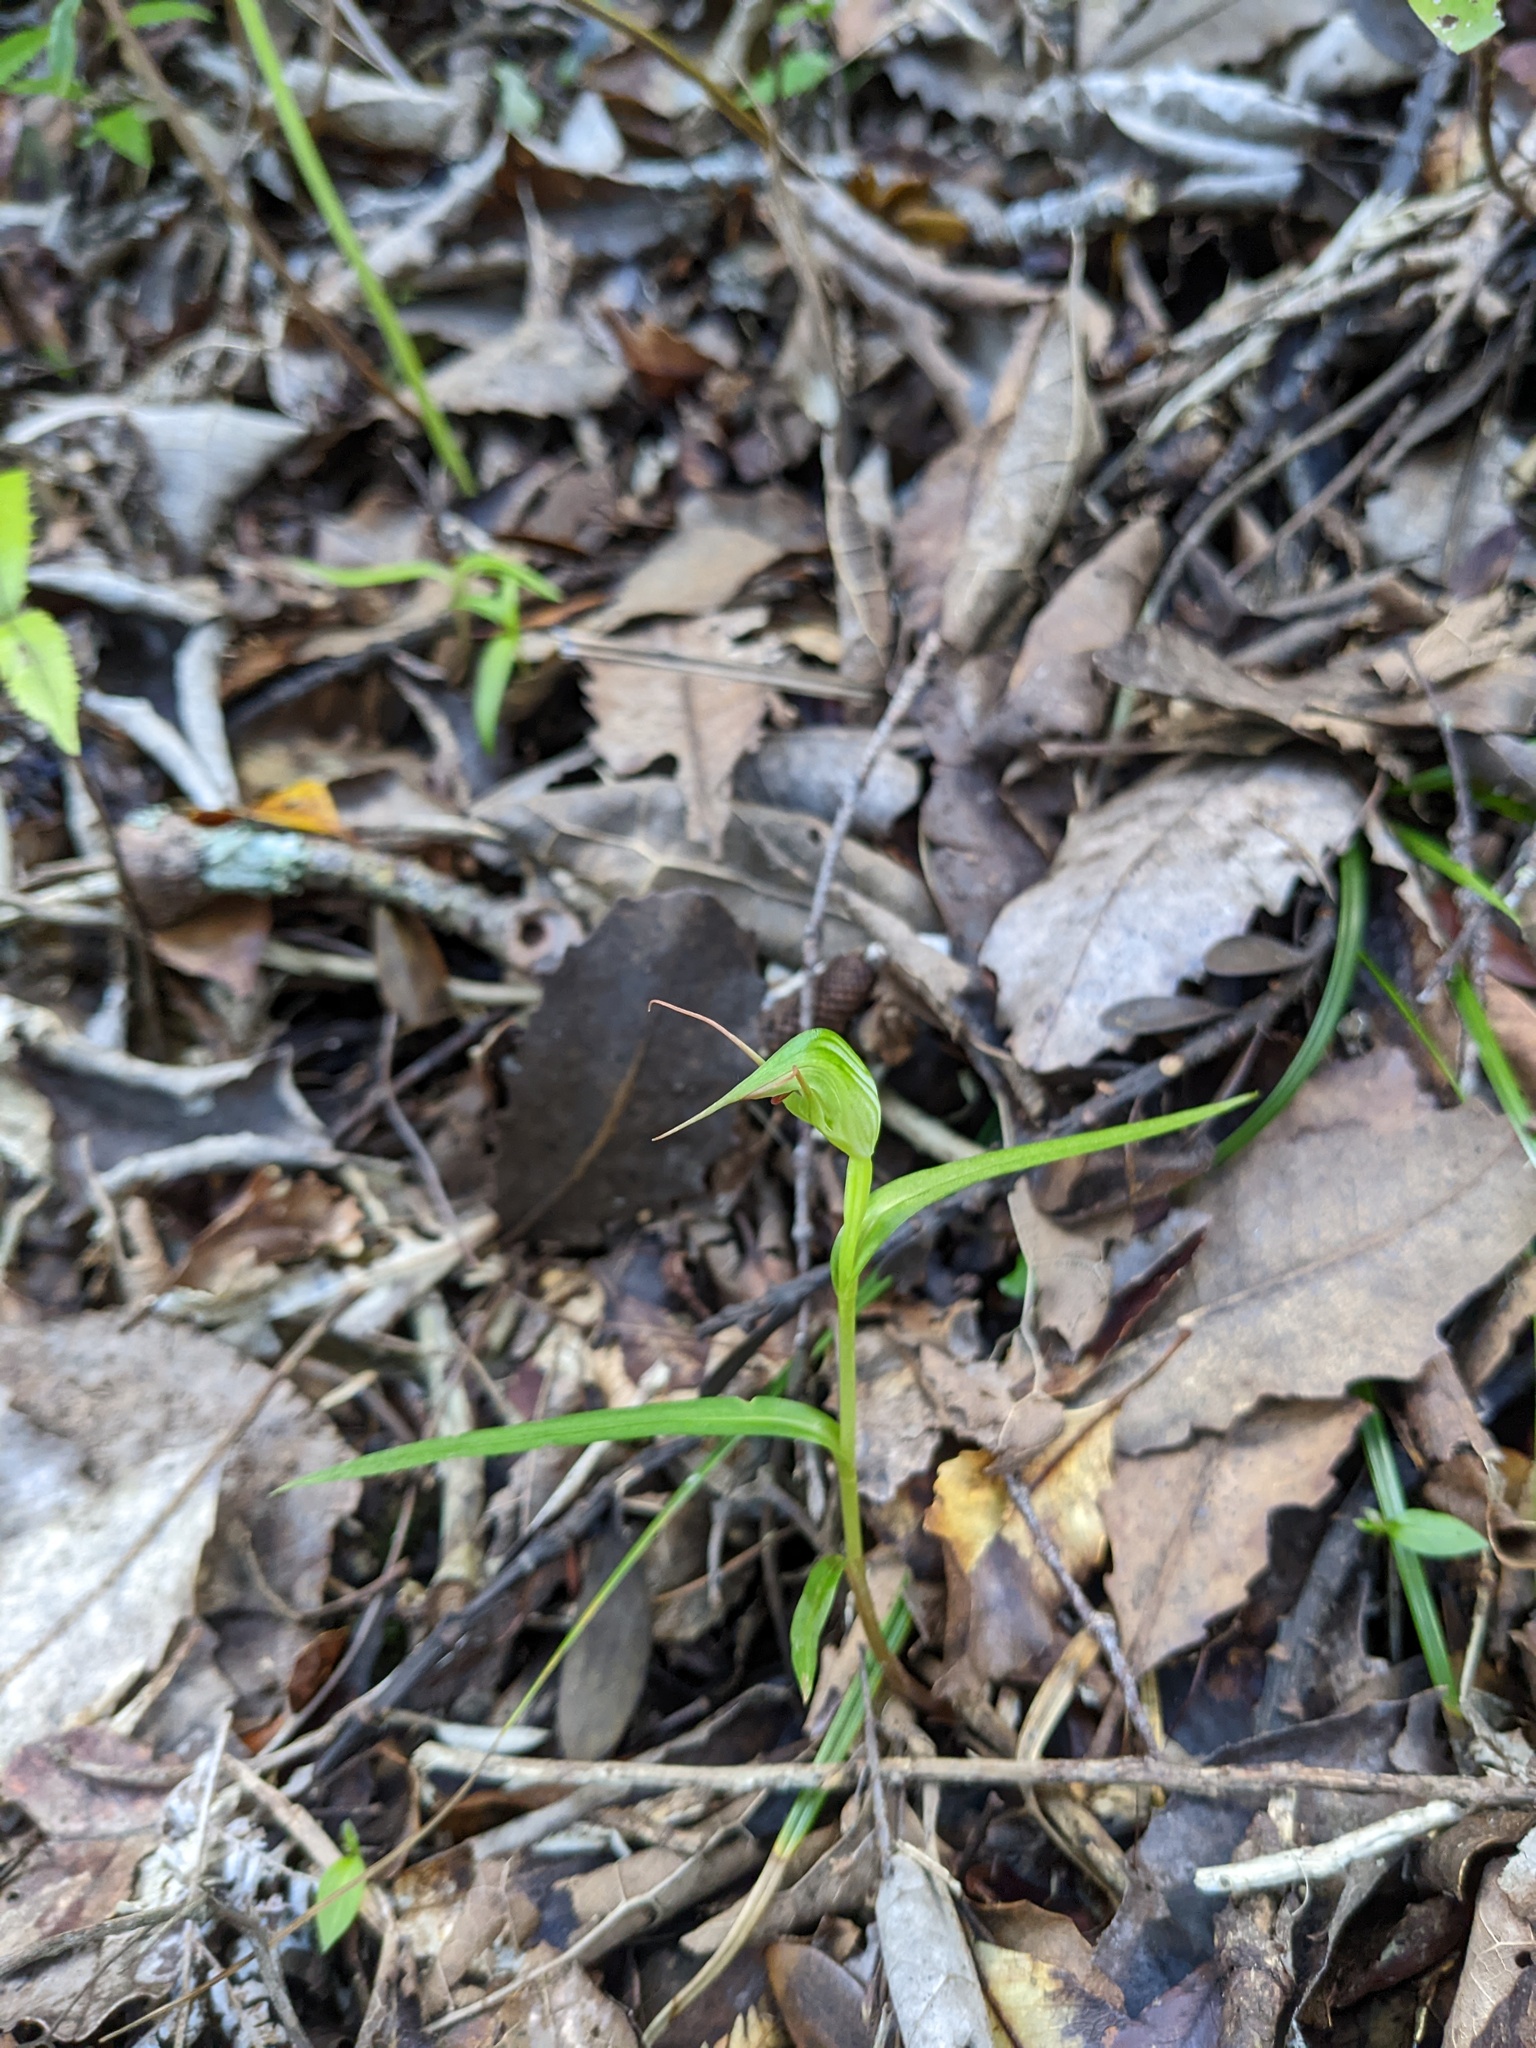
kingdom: Plantae
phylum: Tracheophyta
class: Liliopsida
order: Asparagales
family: Orchidaceae
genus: Pterostylis
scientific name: Pterostylis agathicola
